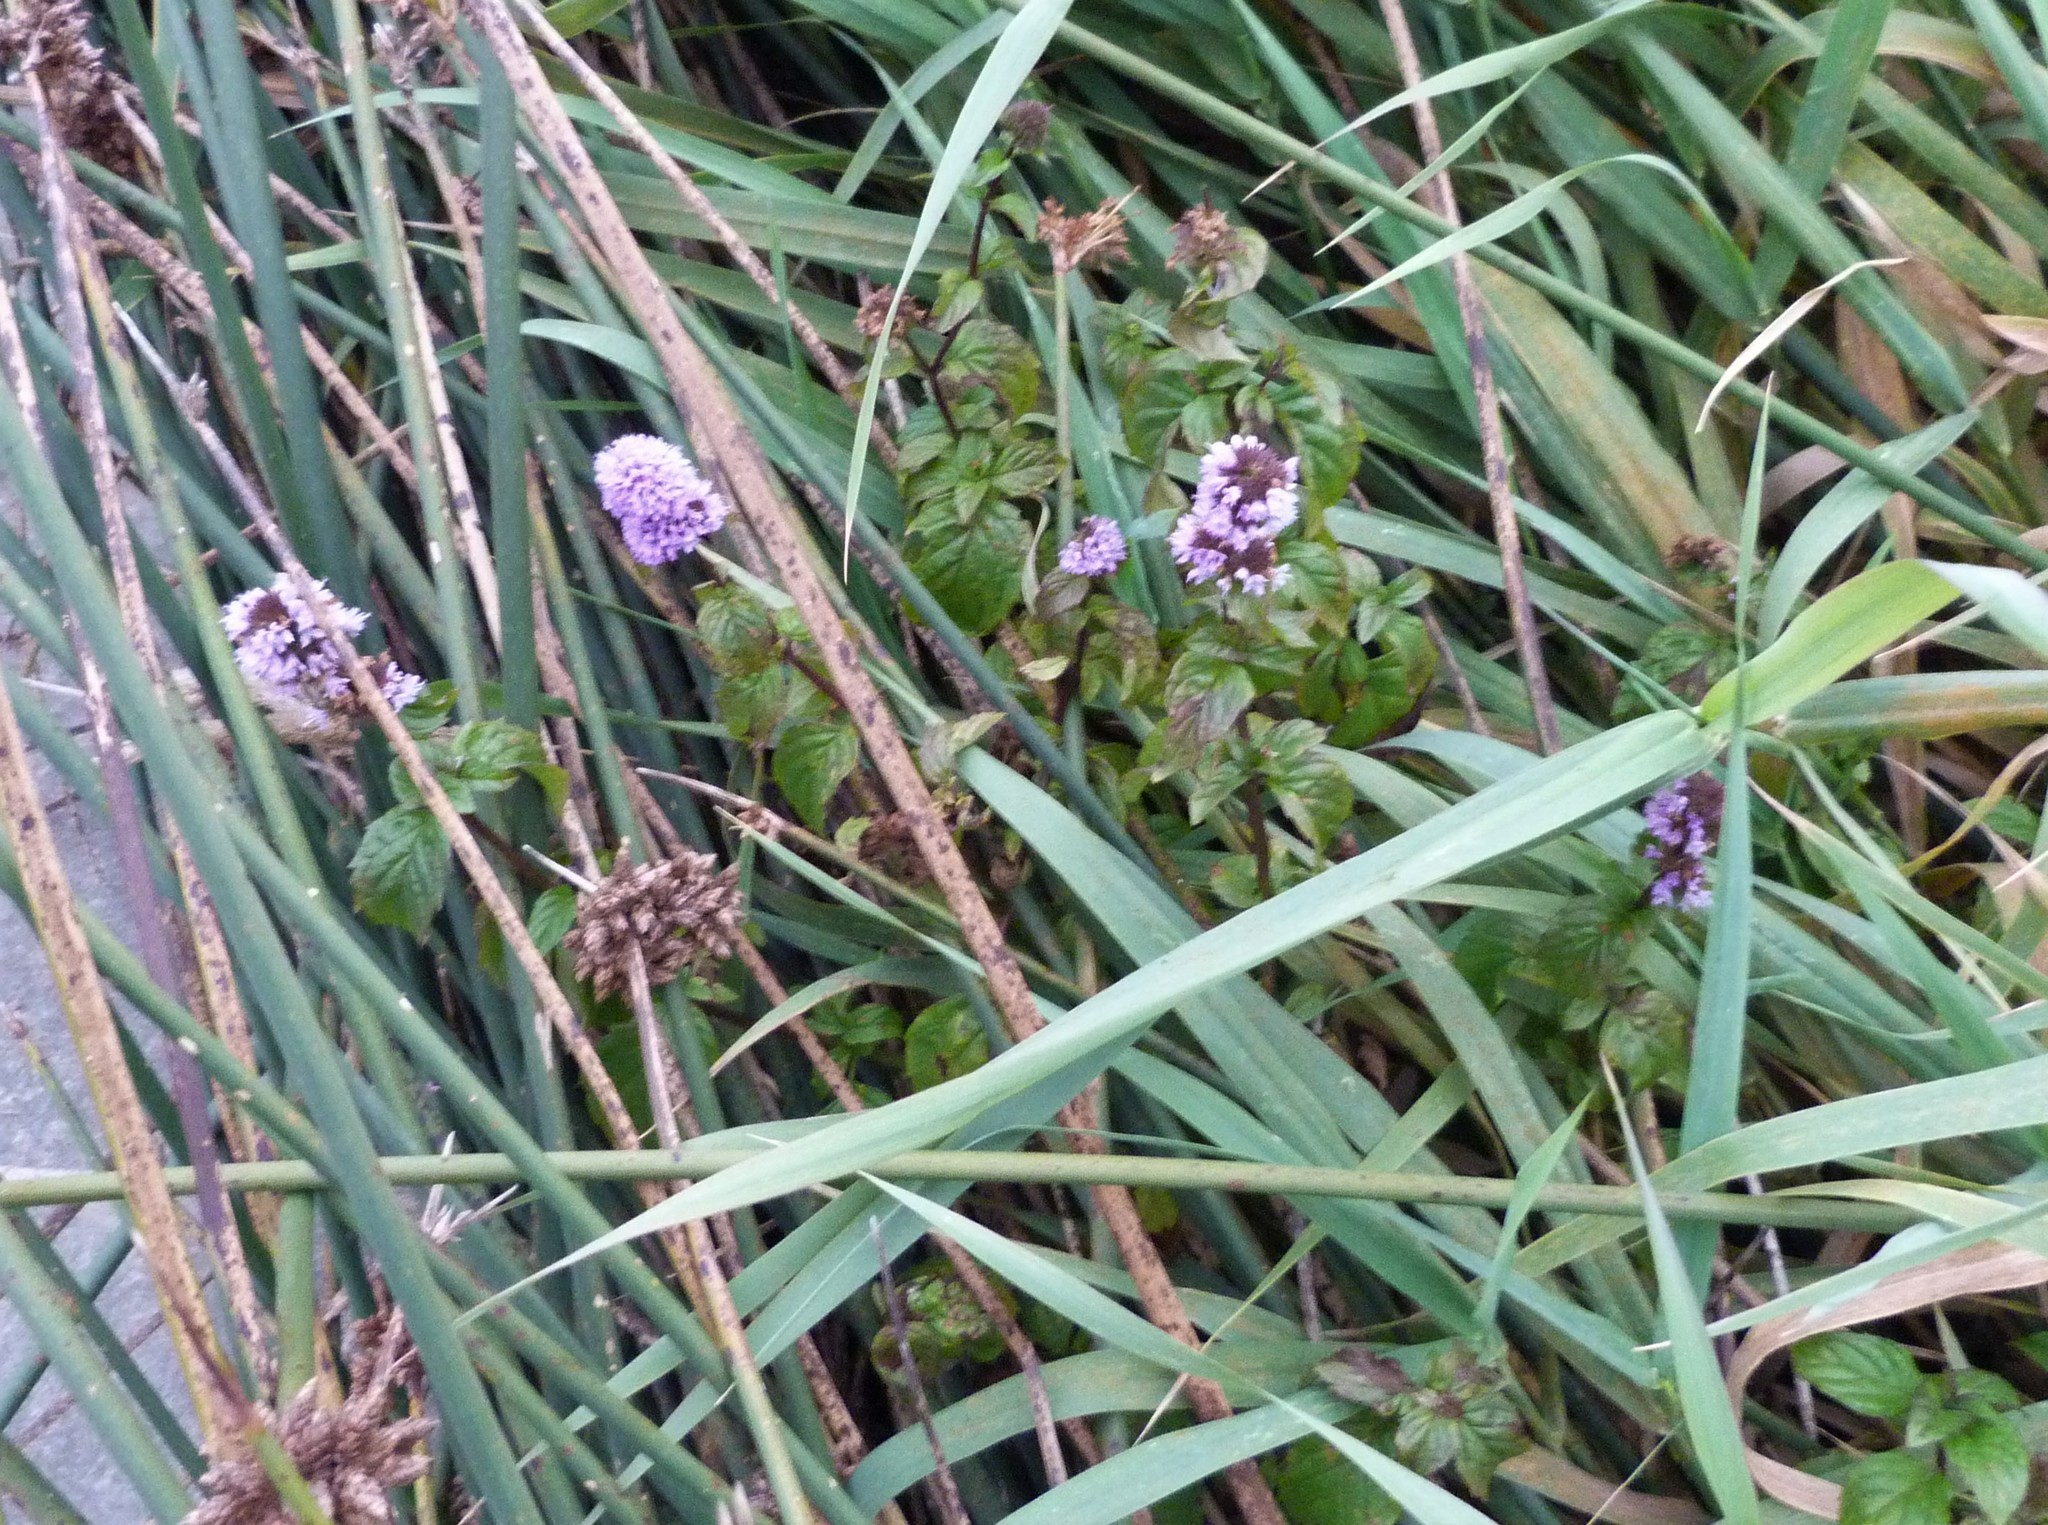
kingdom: Plantae
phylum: Tracheophyta
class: Magnoliopsida
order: Lamiales
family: Lamiaceae
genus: Mentha
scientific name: Mentha spicata
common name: Spearmint
